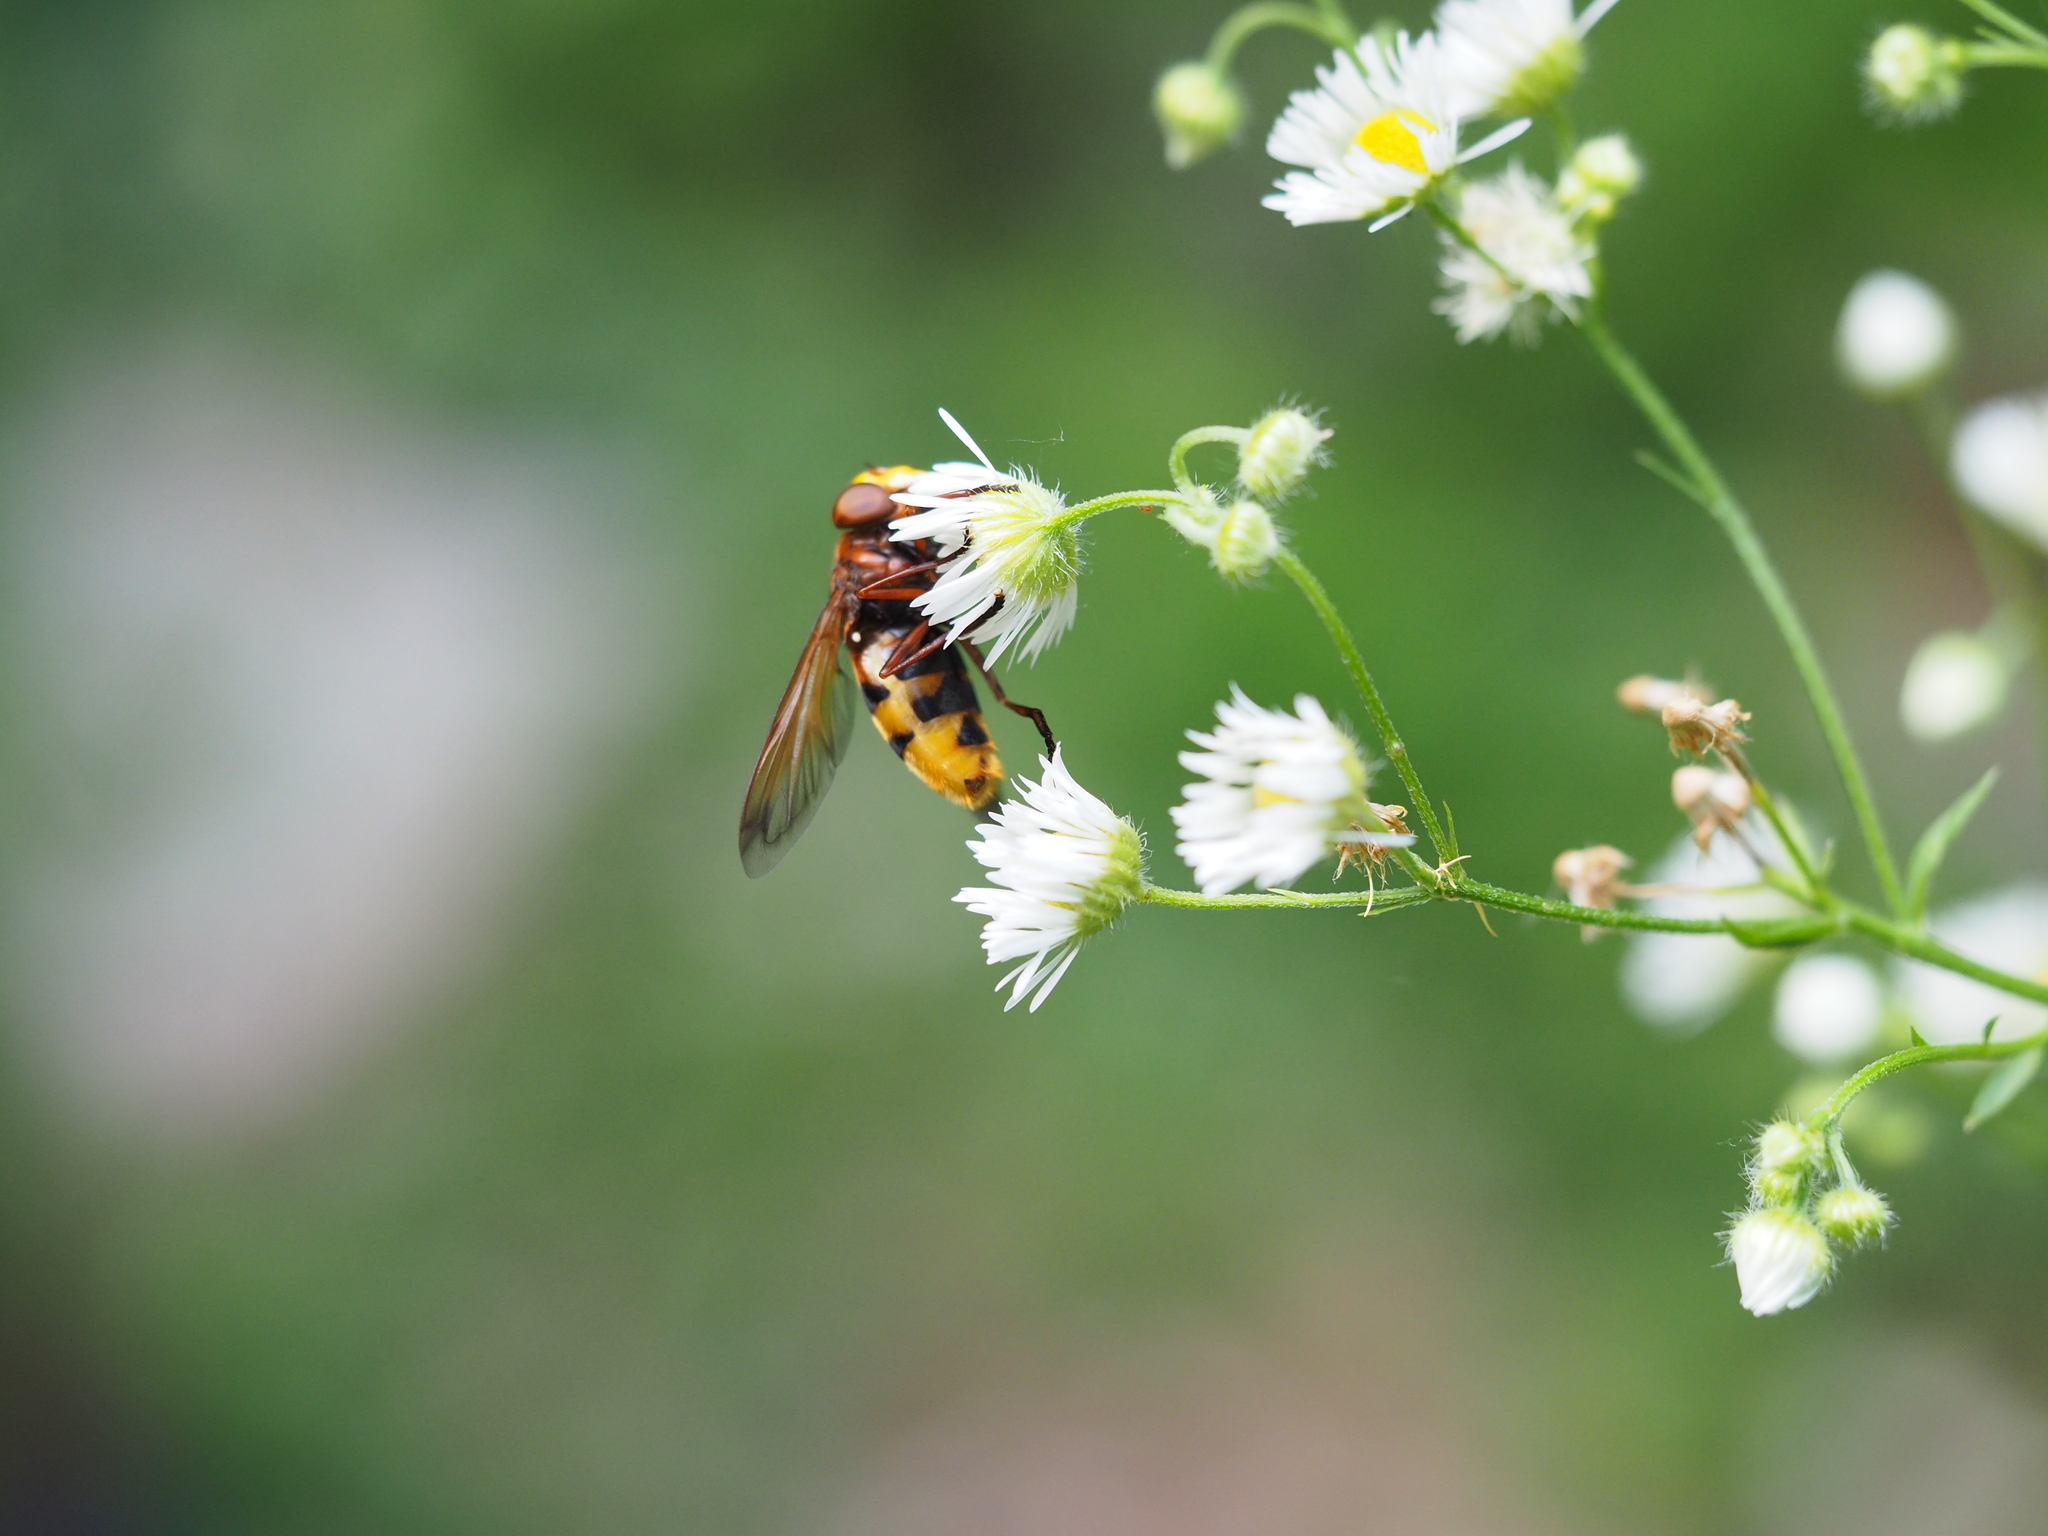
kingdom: Animalia
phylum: Arthropoda
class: Insecta
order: Diptera
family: Syrphidae
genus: Volucella
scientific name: Volucella zonaria
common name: Hornet hoverfly
